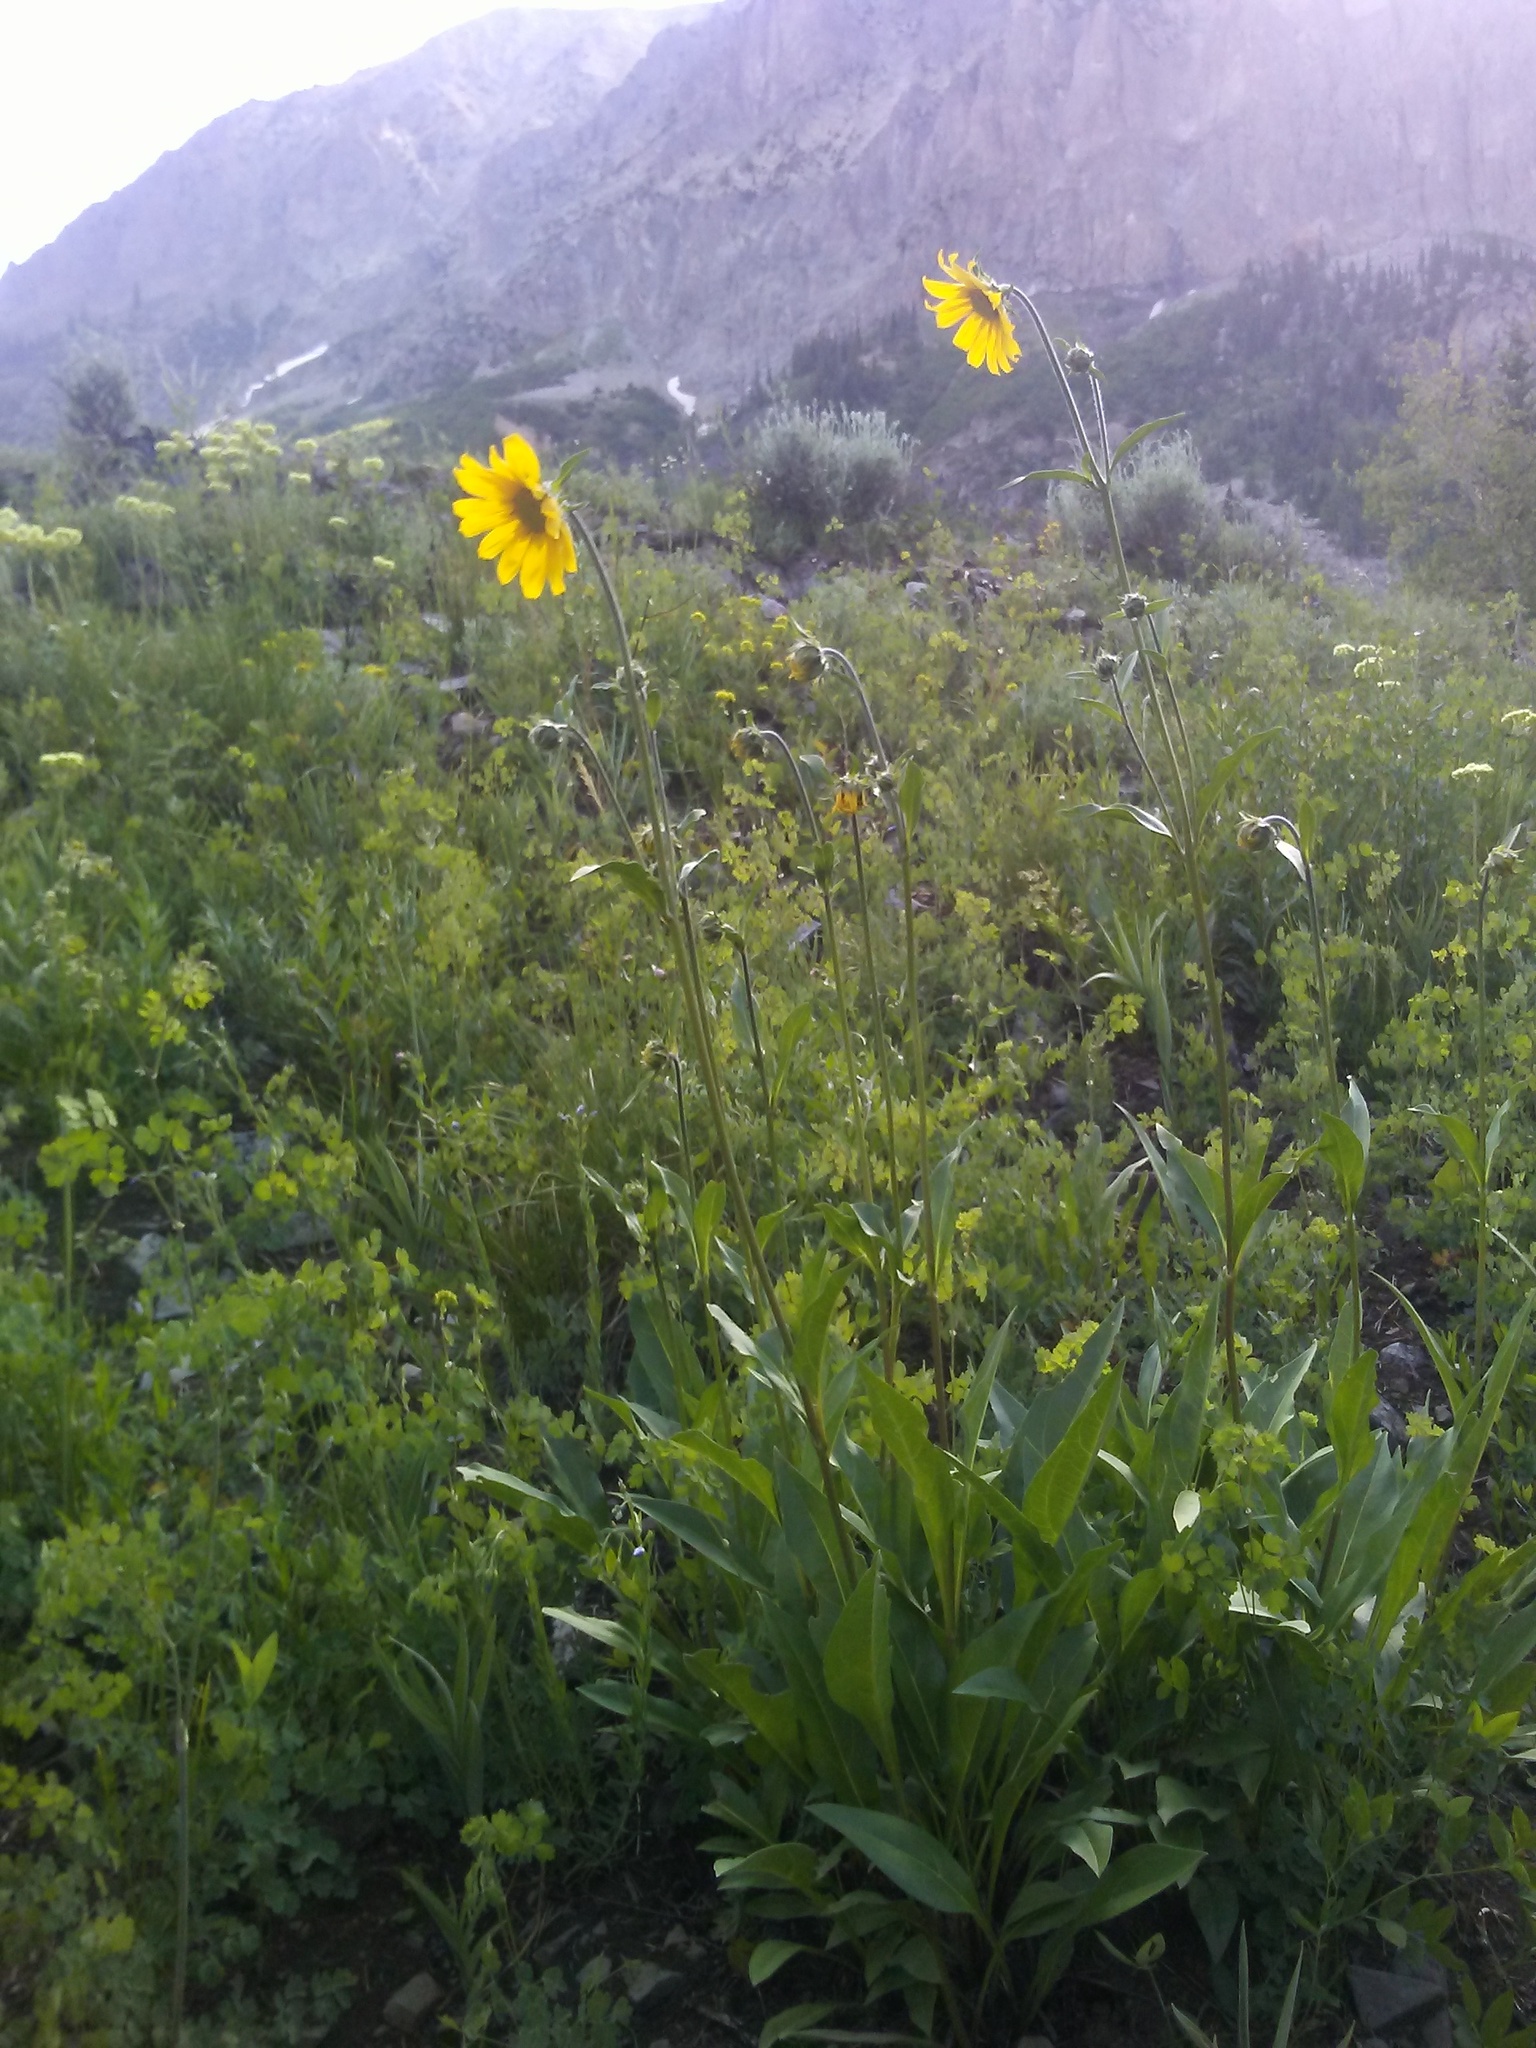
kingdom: Plantae
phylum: Tracheophyta
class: Magnoliopsida
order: Asterales
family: Asteraceae
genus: Helianthella
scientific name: Helianthella quinquenervis
